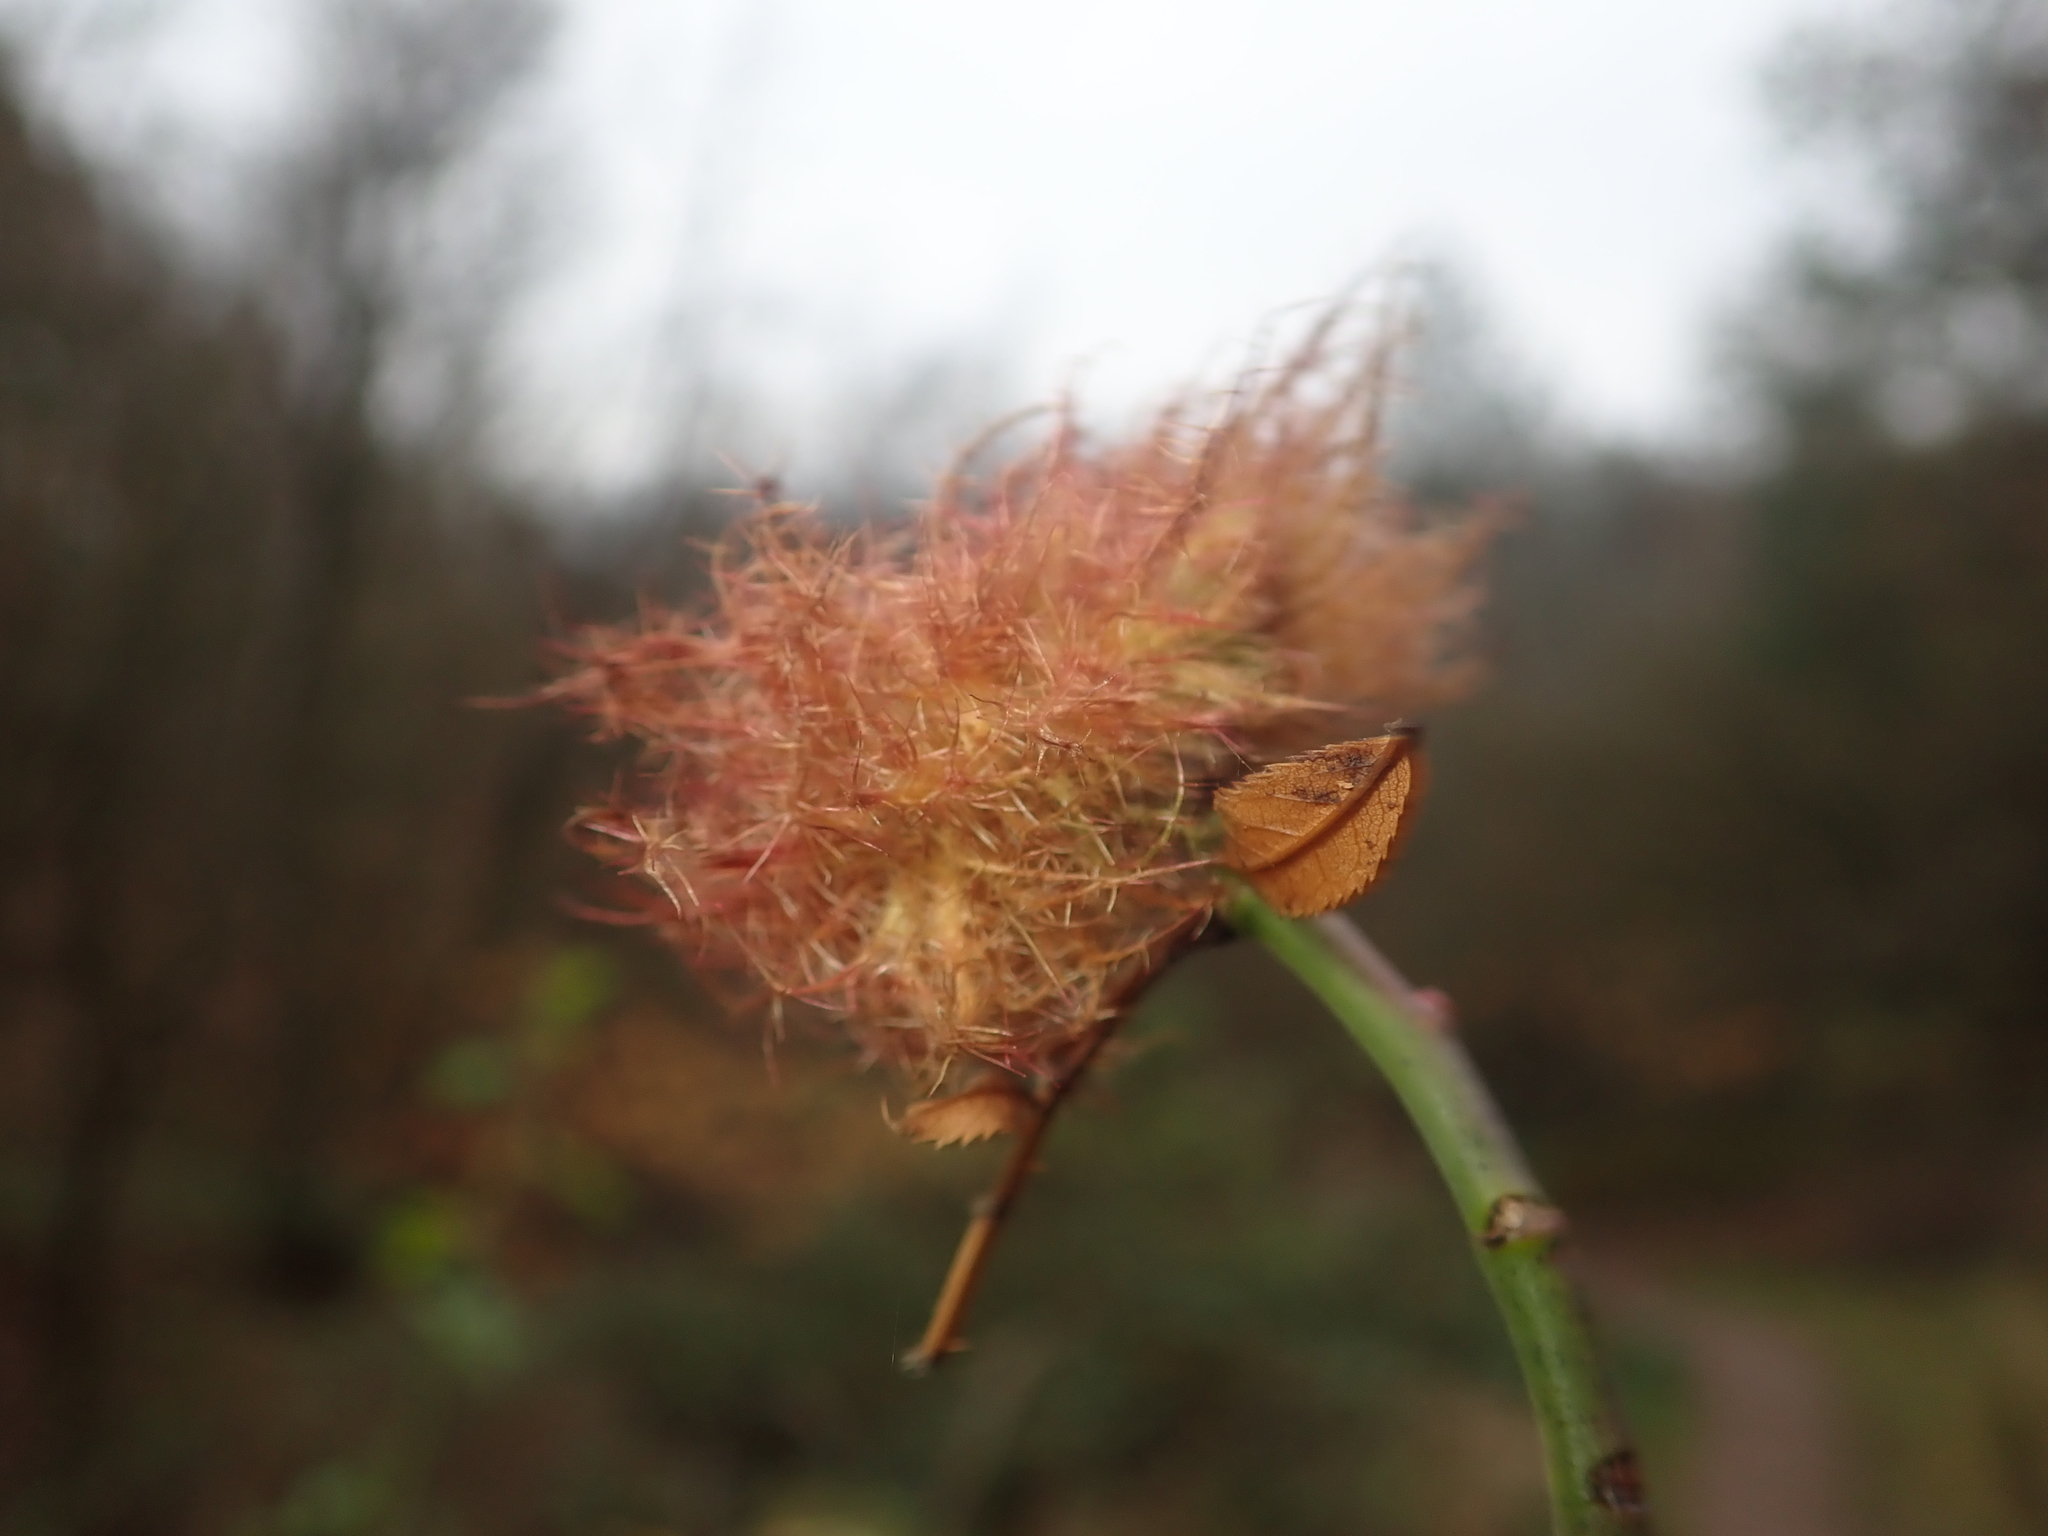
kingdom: Animalia
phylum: Arthropoda
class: Insecta
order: Hymenoptera
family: Cynipidae
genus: Diplolepis
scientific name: Diplolepis rosae
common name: Bedeguar gall
